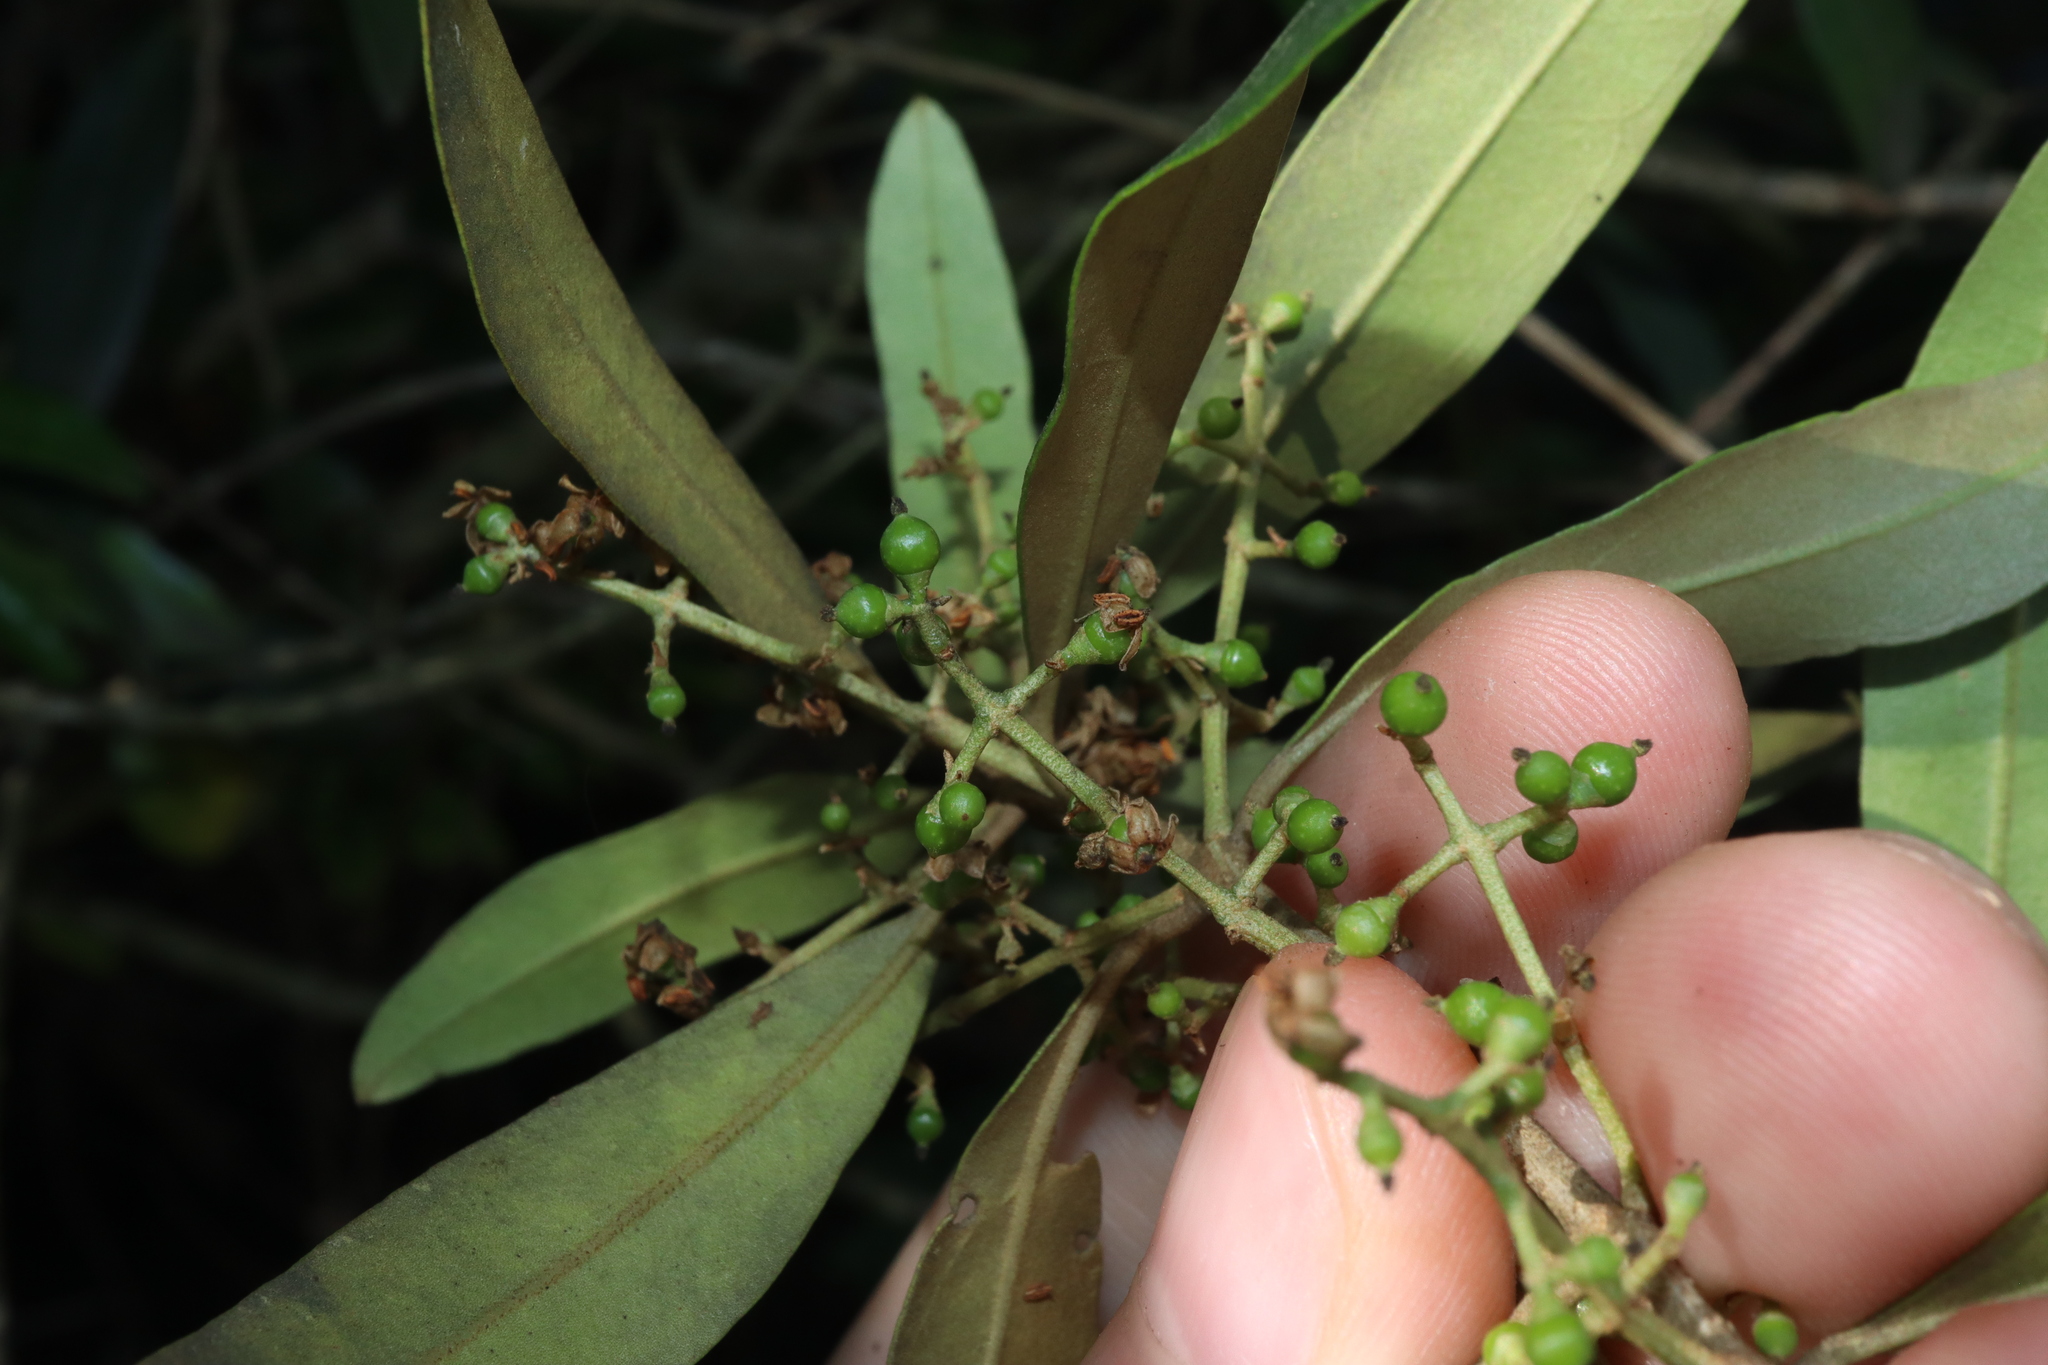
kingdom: Plantae
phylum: Tracheophyta
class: Magnoliopsida
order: Lamiales
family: Oleaceae
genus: Olea
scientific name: Olea europaea
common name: Olive
